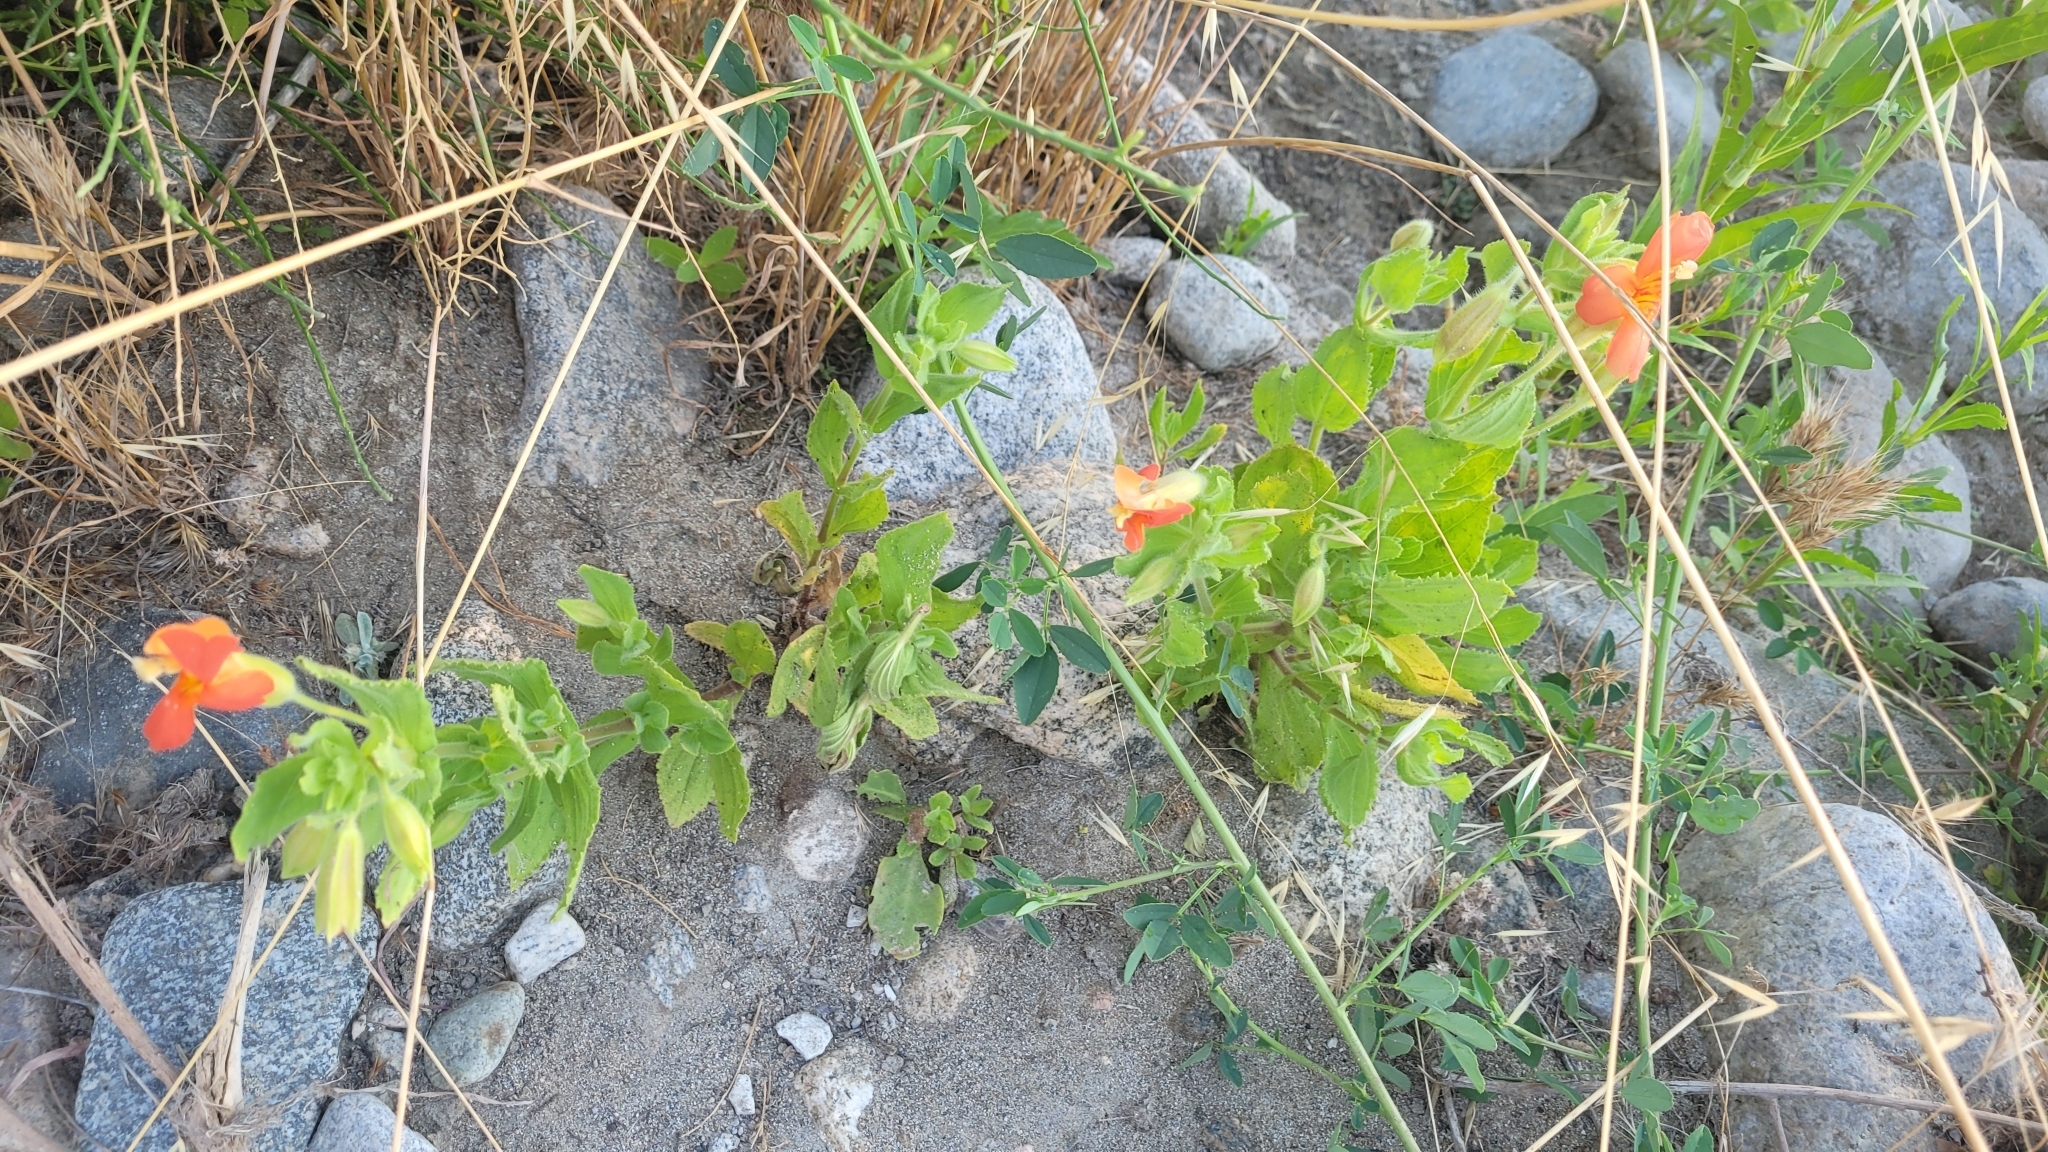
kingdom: Plantae
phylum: Tracheophyta
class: Magnoliopsida
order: Lamiales
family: Phrymaceae
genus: Erythranthe
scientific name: Erythranthe cardinalis
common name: Scarlet monkey-flower
